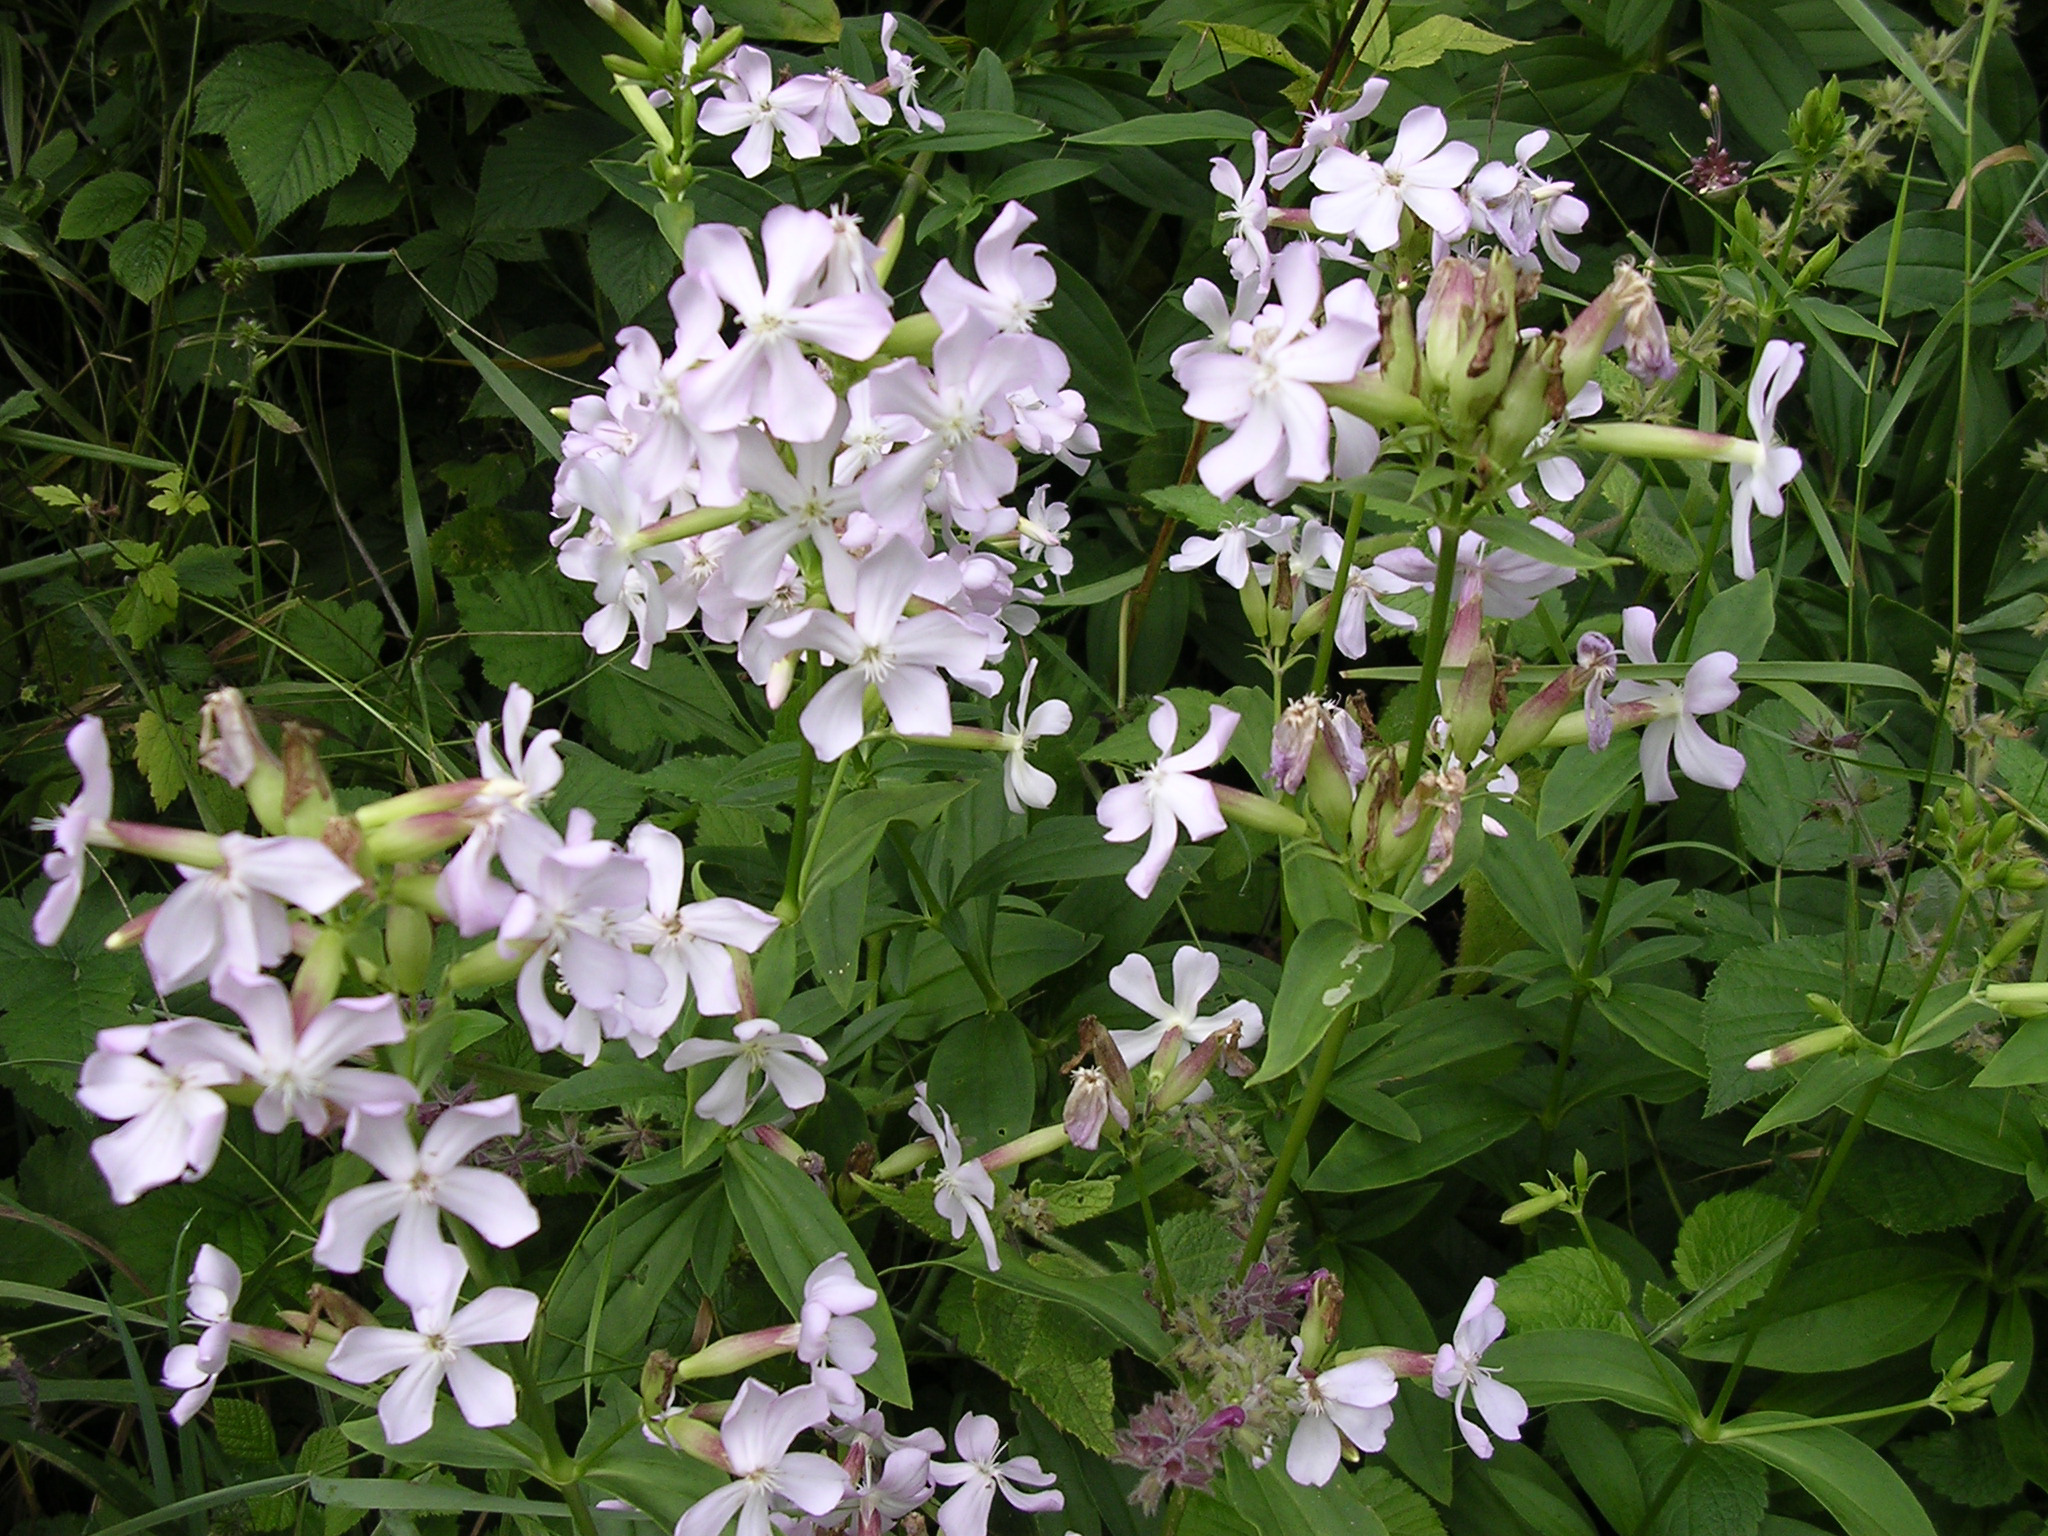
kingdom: Plantae
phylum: Tracheophyta
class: Magnoliopsida
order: Caryophyllales
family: Caryophyllaceae
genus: Saponaria
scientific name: Saponaria officinalis
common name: Soapwort
